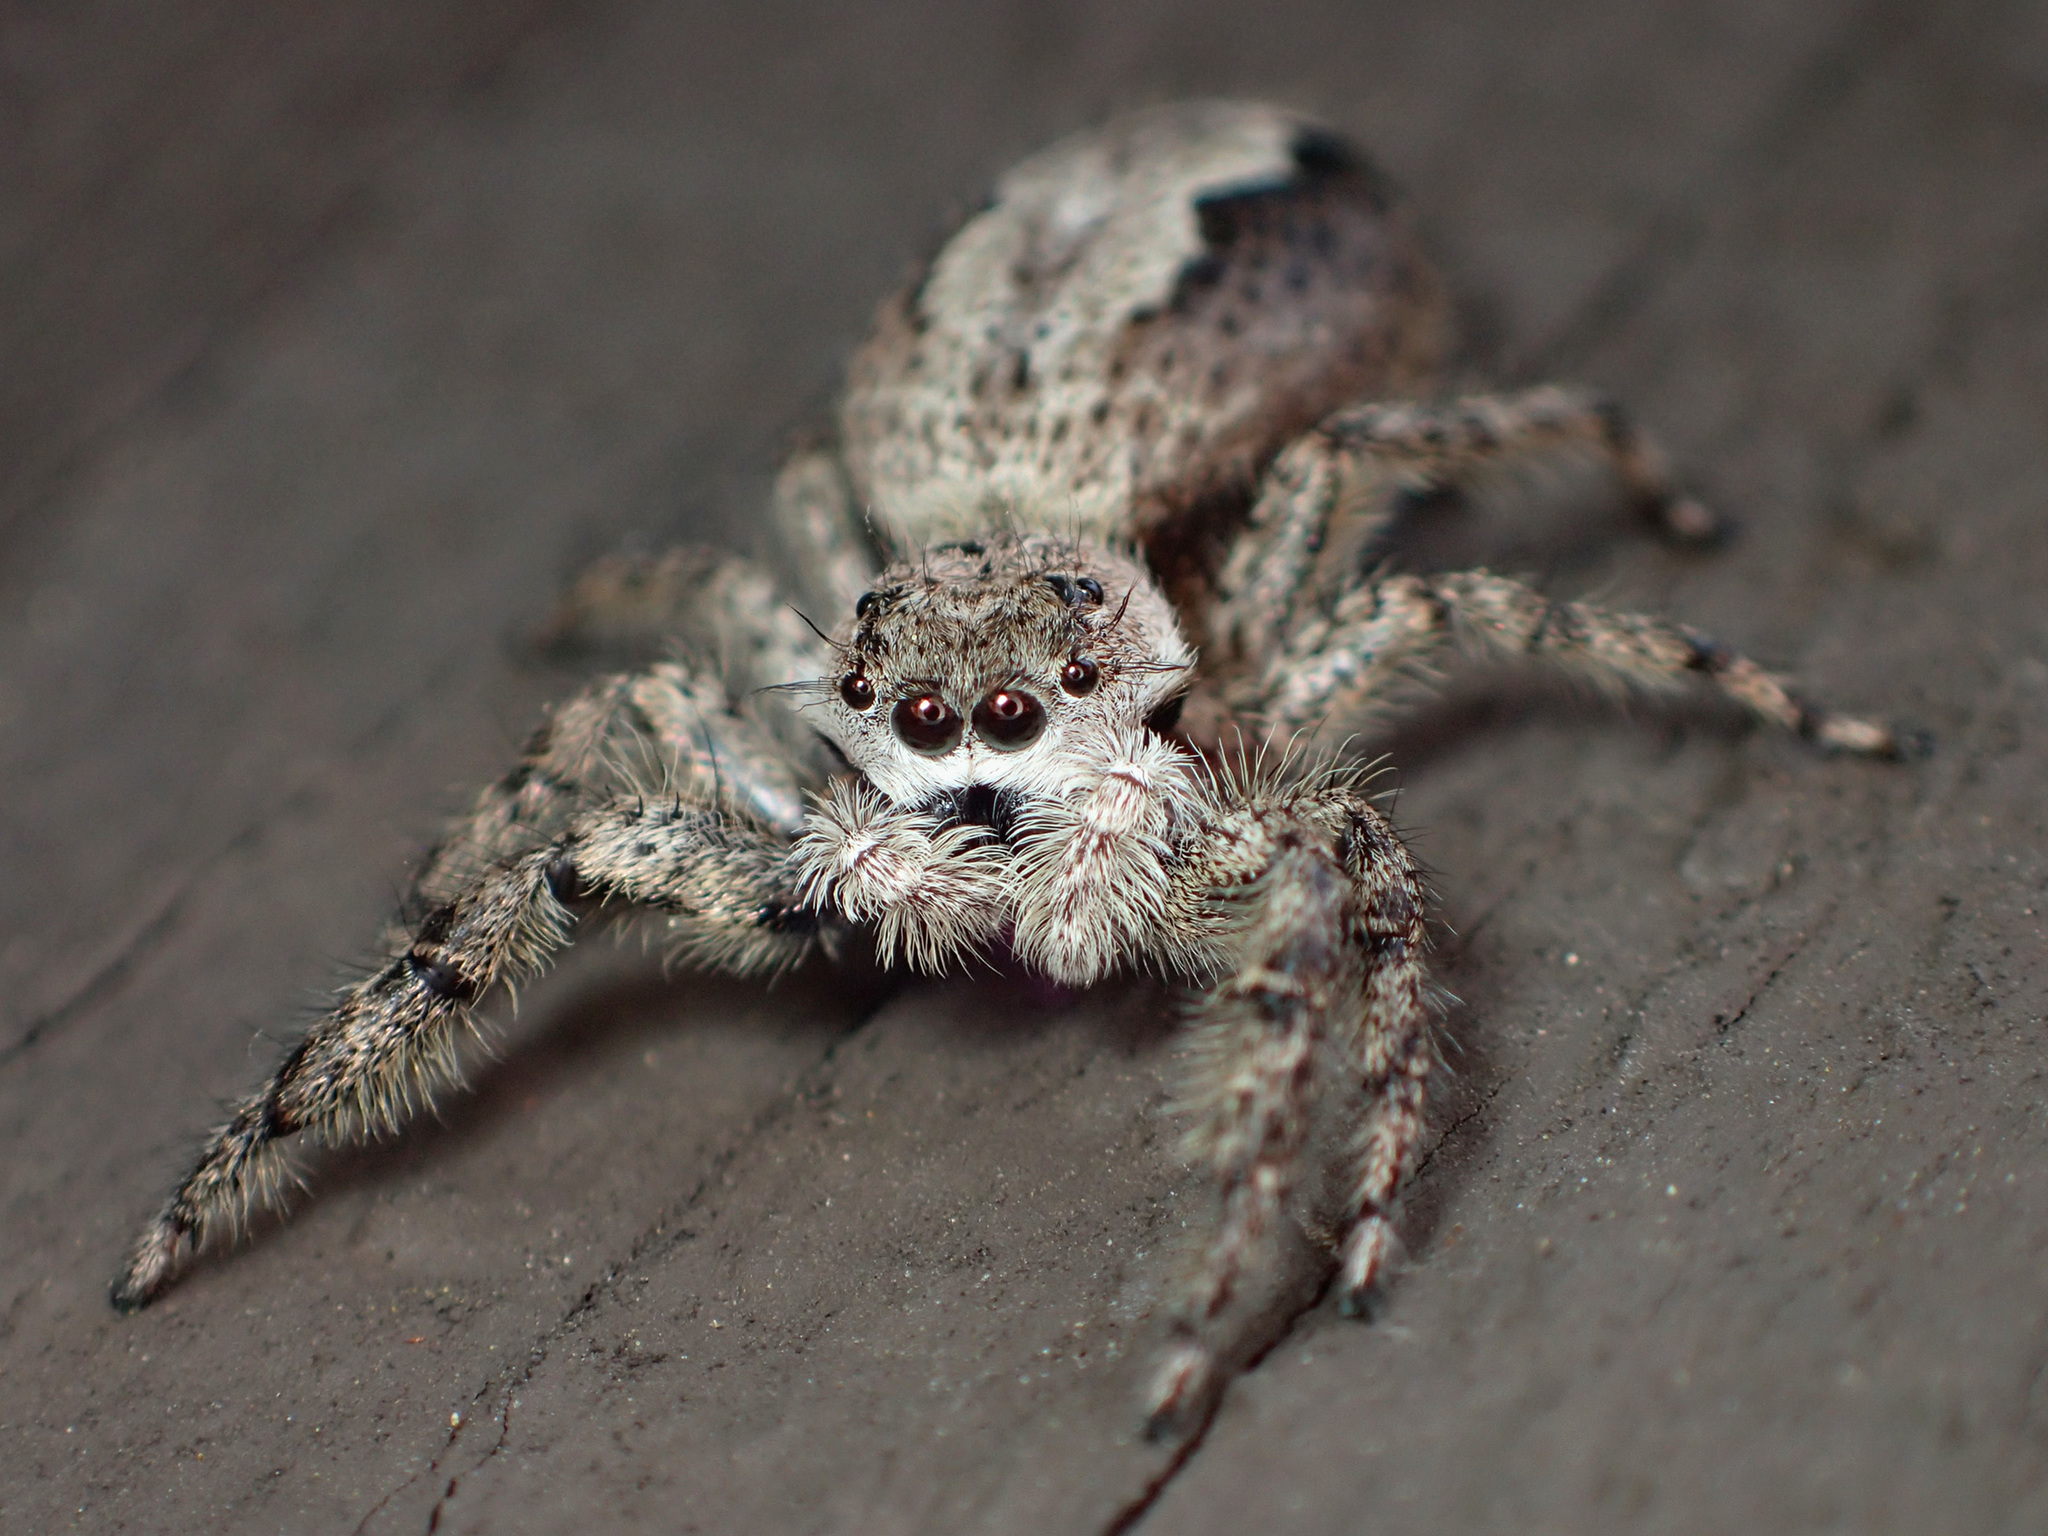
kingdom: Animalia
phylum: Arthropoda
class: Arachnida
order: Araneae
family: Salticidae
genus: Platycryptus
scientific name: Platycryptus undatus
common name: Tan jumping spider
